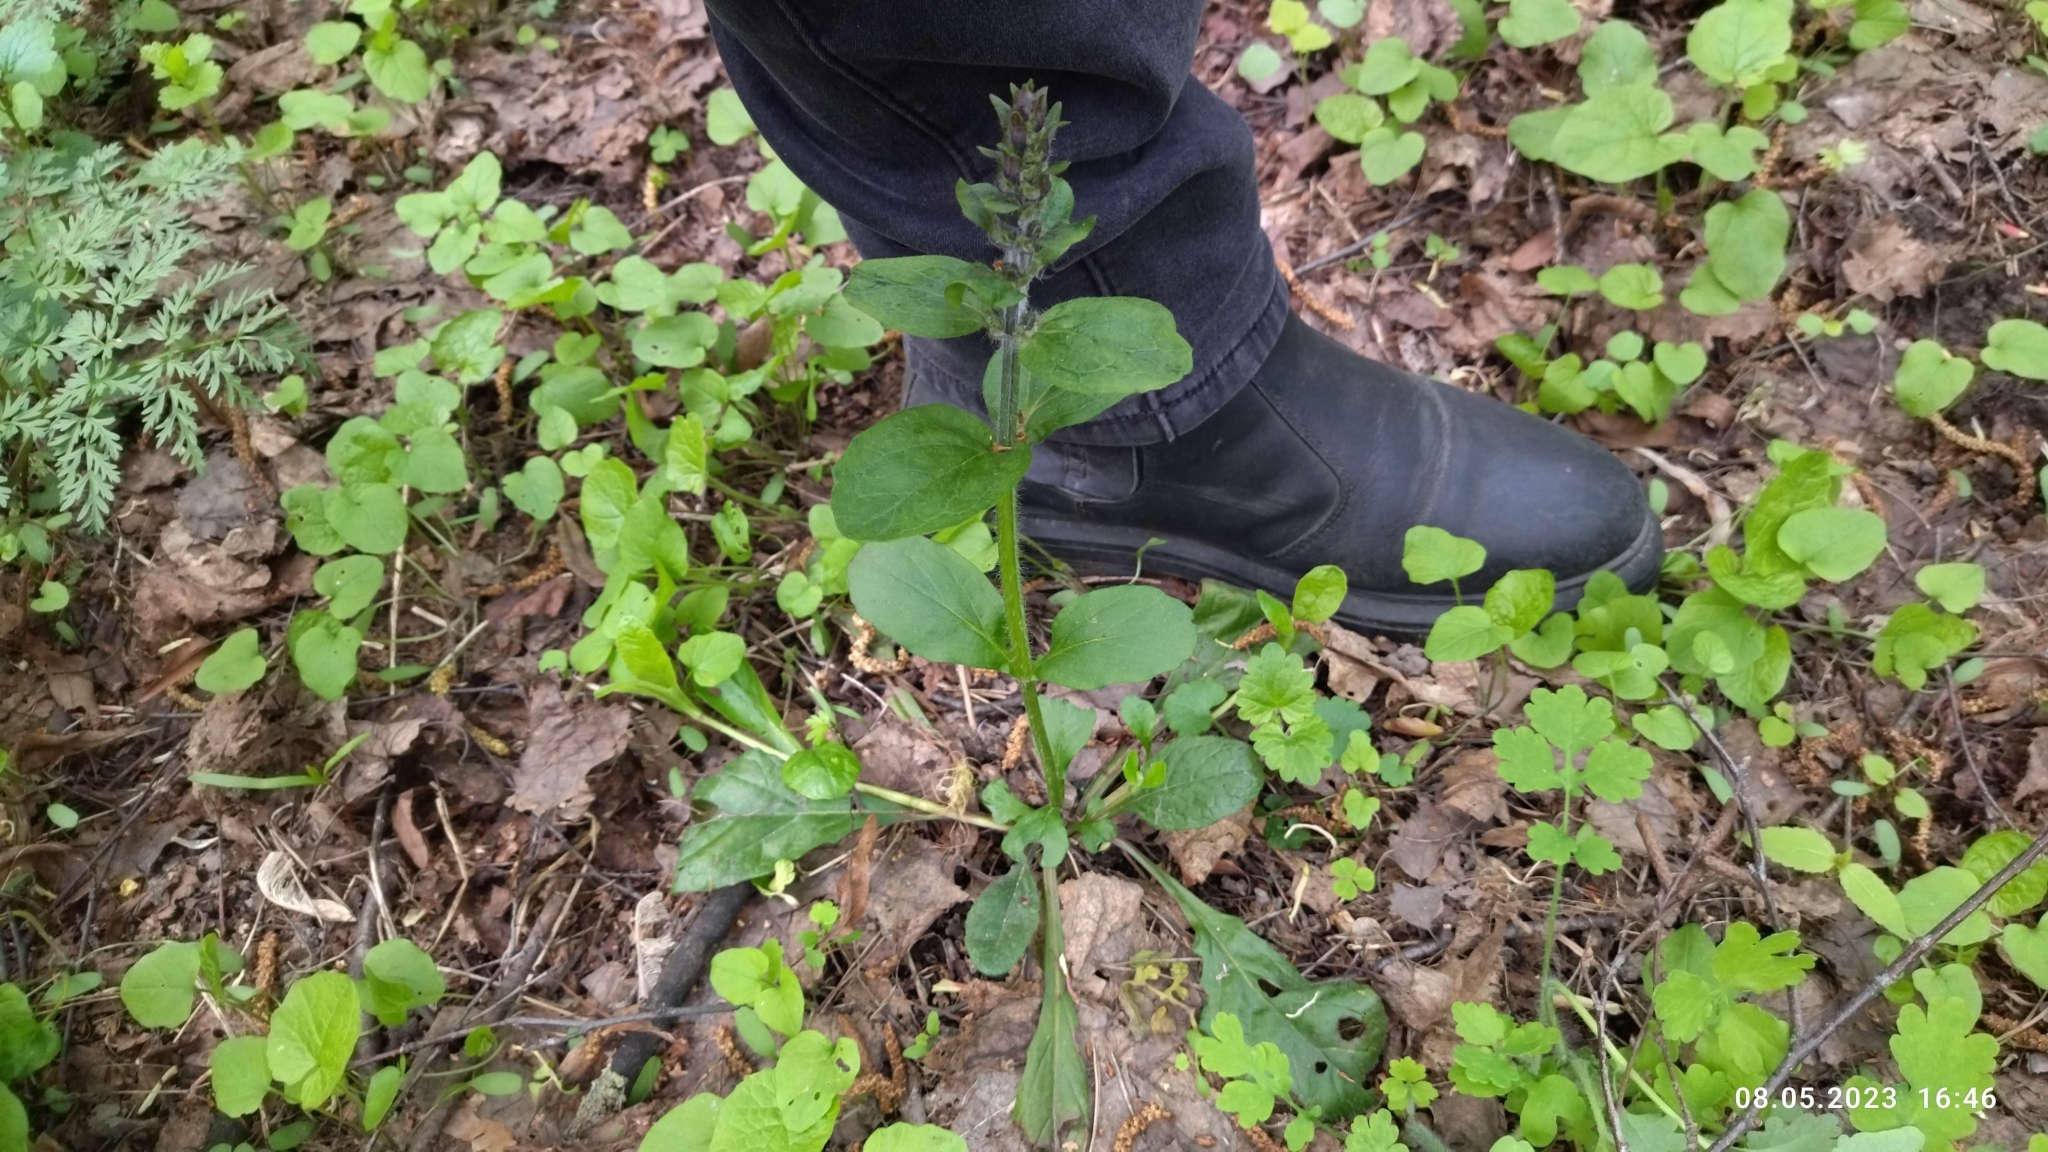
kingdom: Plantae
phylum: Tracheophyta
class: Magnoliopsida
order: Lamiales
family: Lamiaceae
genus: Ajuga
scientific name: Ajuga reptans
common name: Bugle
